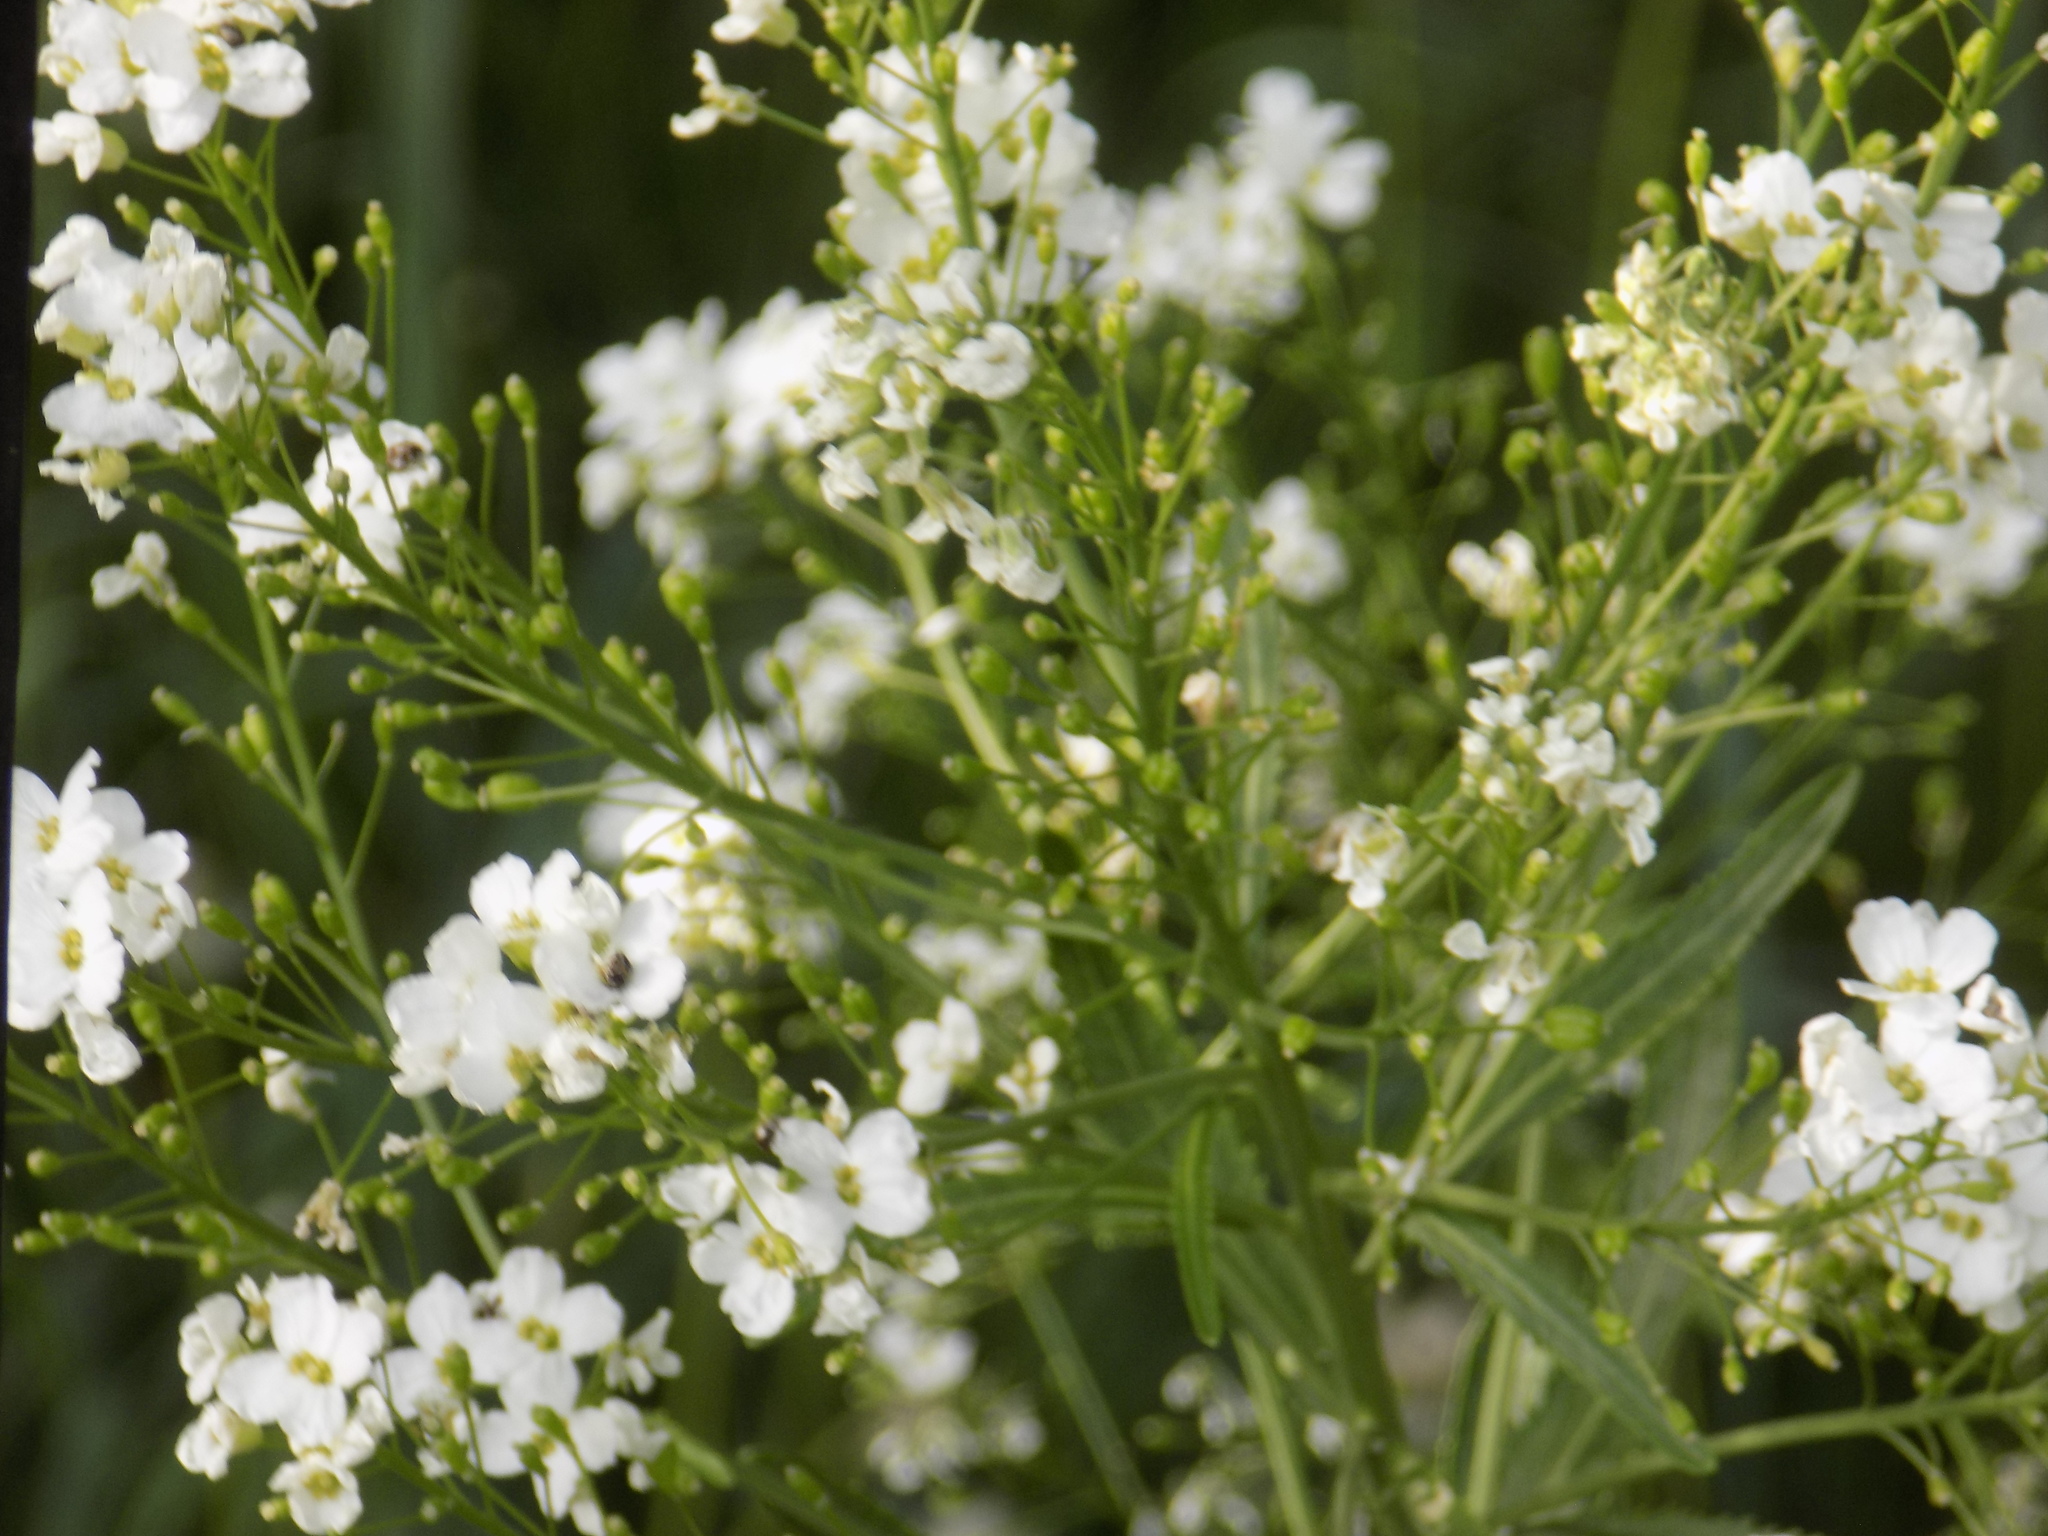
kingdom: Plantae
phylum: Tracheophyta
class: Magnoliopsida
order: Brassicales
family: Brassicaceae
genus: Armoracia
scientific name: Armoracia rusticana
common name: Horseradish
